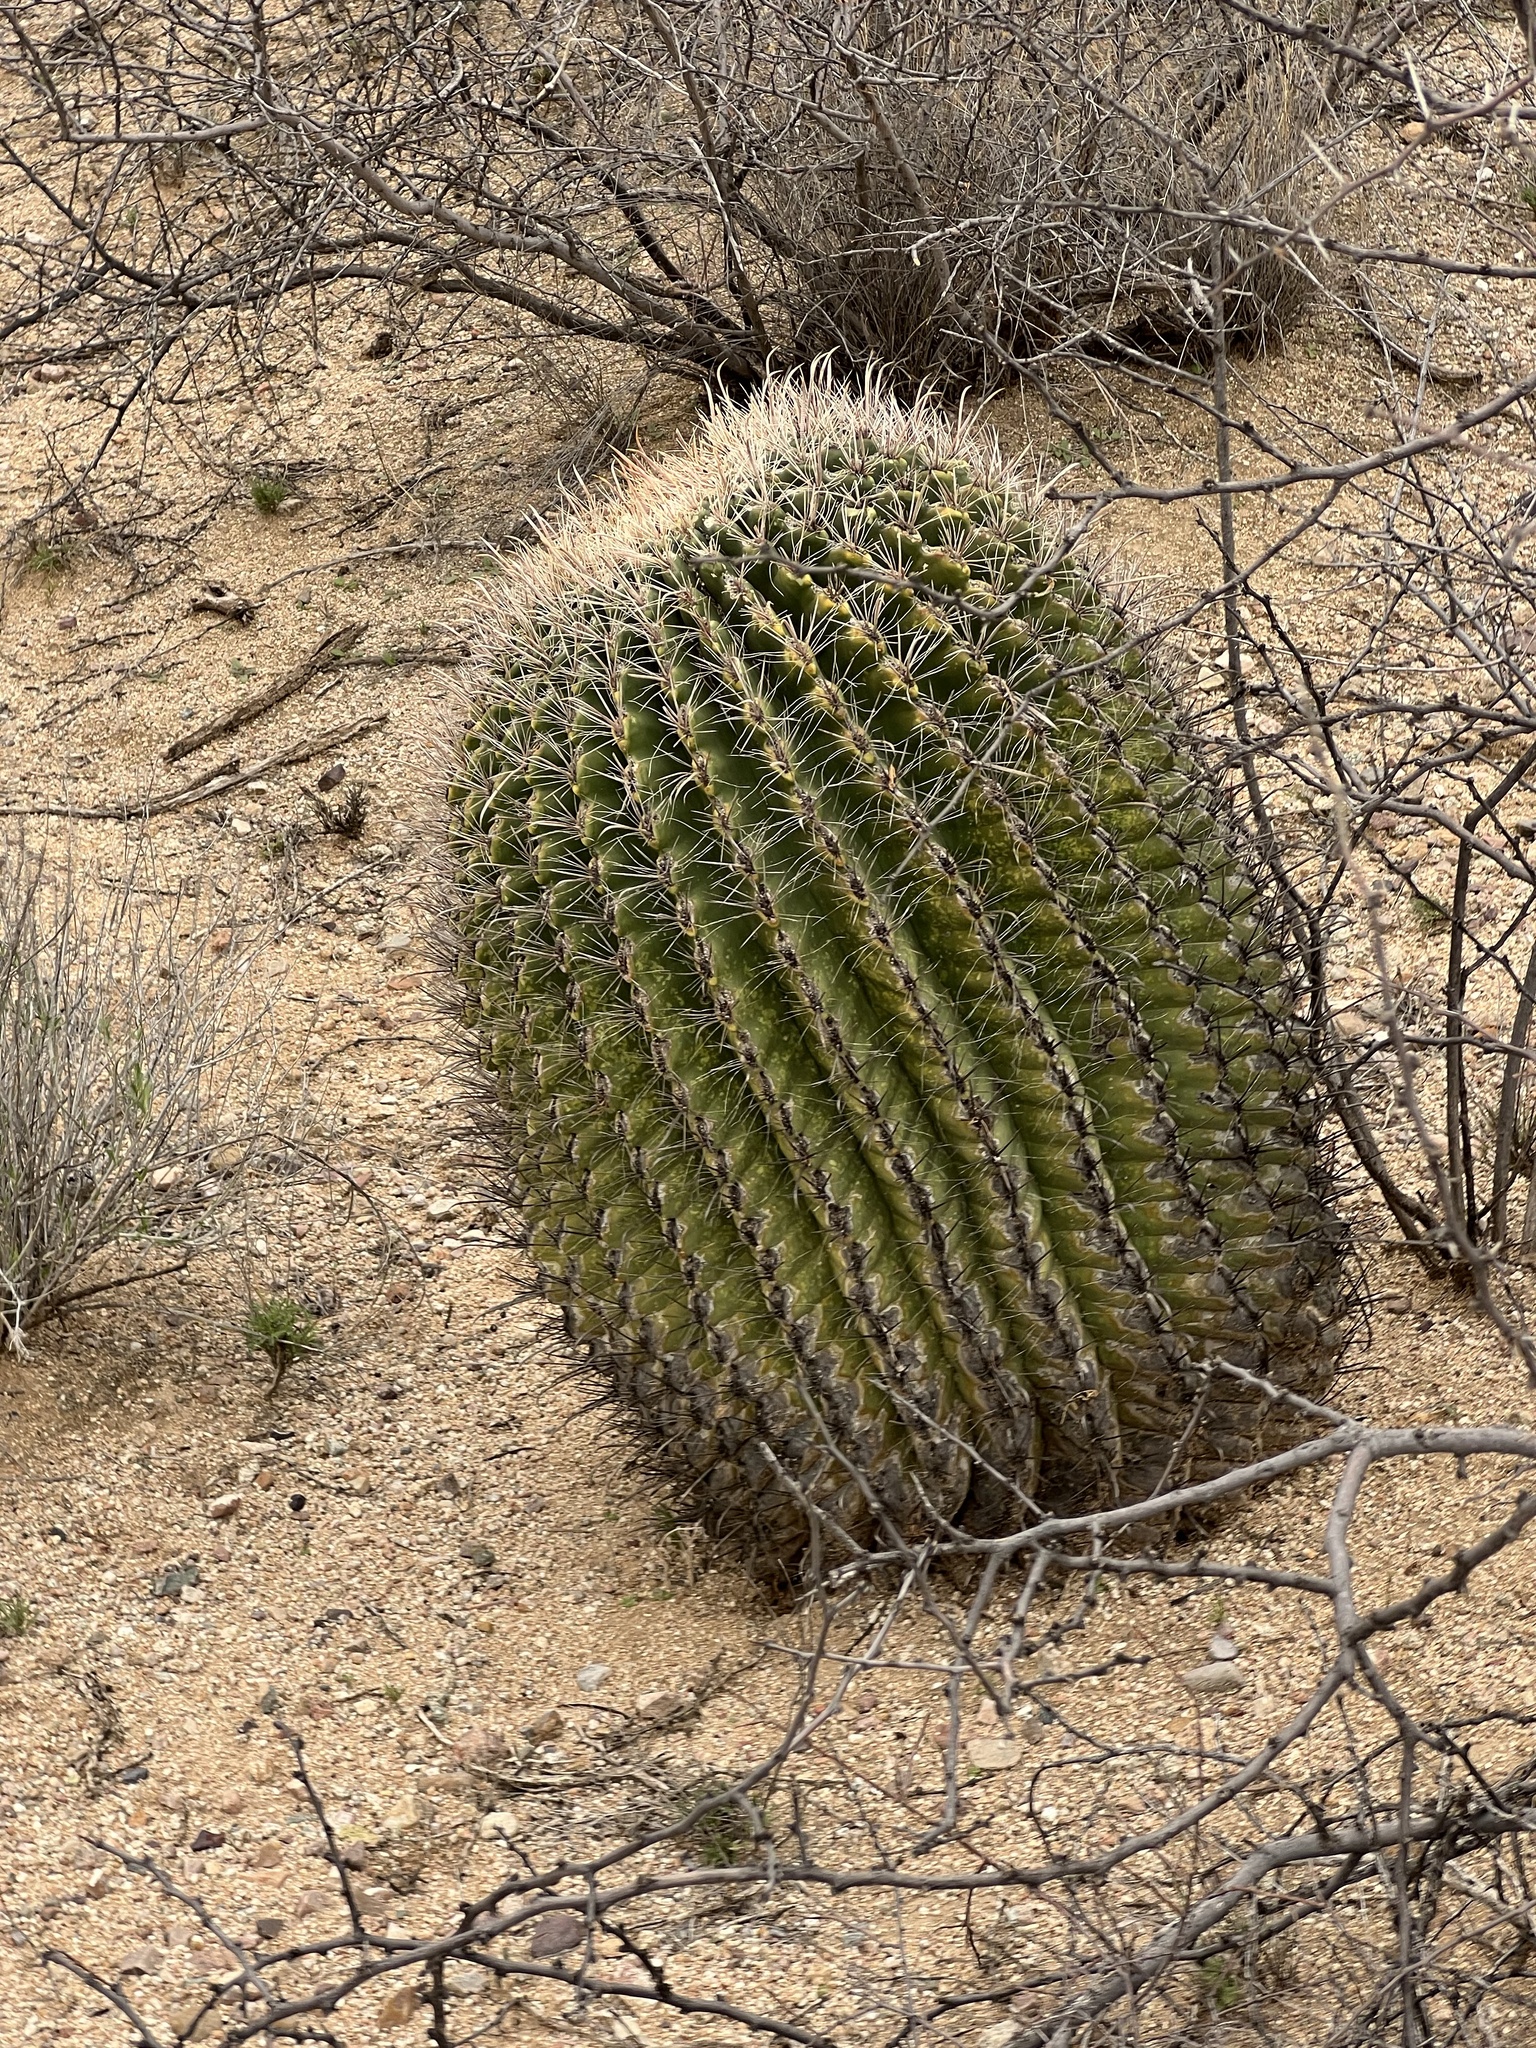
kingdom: Plantae
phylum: Tracheophyta
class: Magnoliopsida
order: Caryophyllales
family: Cactaceae
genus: Ferocactus
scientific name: Ferocactus wislizeni
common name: Candy barrel cactus
